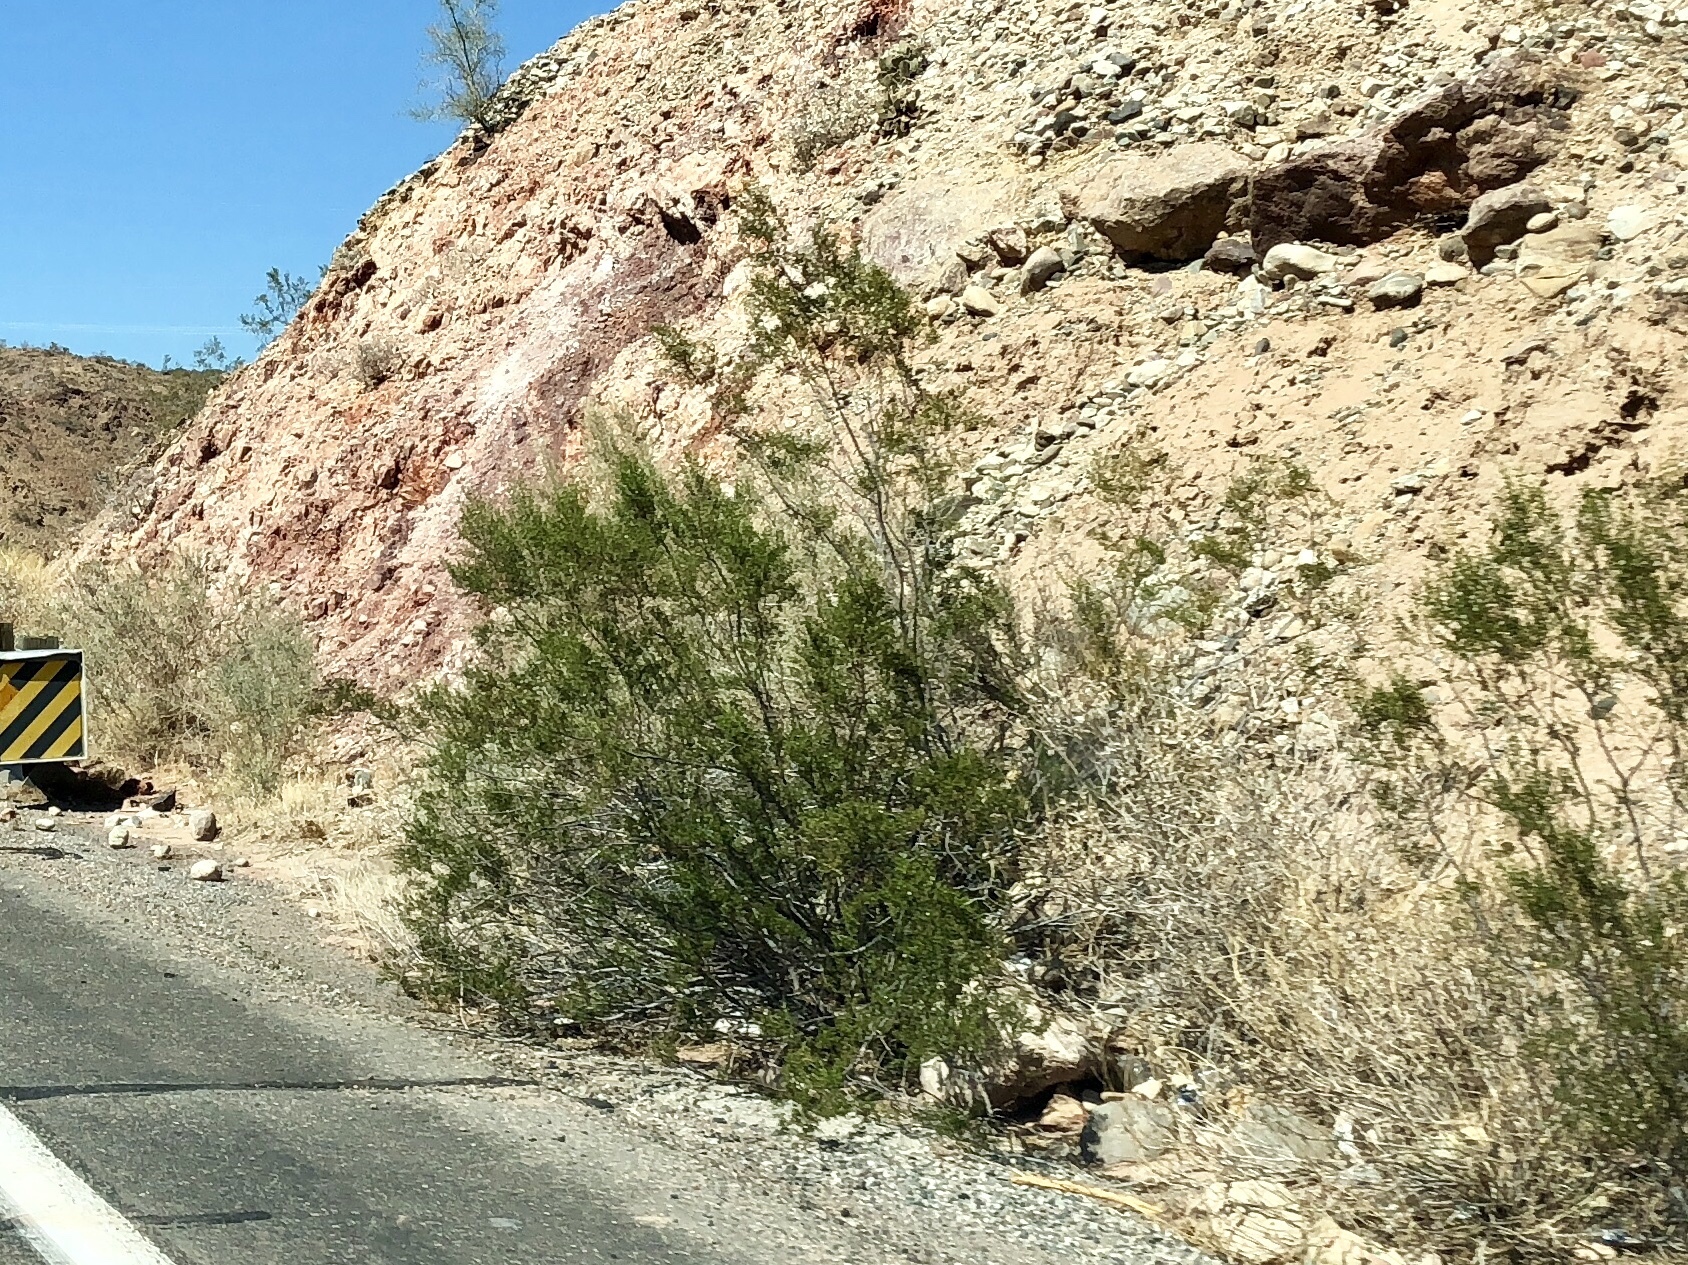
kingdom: Plantae
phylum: Tracheophyta
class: Magnoliopsida
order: Zygophyllales
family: Zygophyllaceae
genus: Larrea
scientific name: Larrea tridentata
